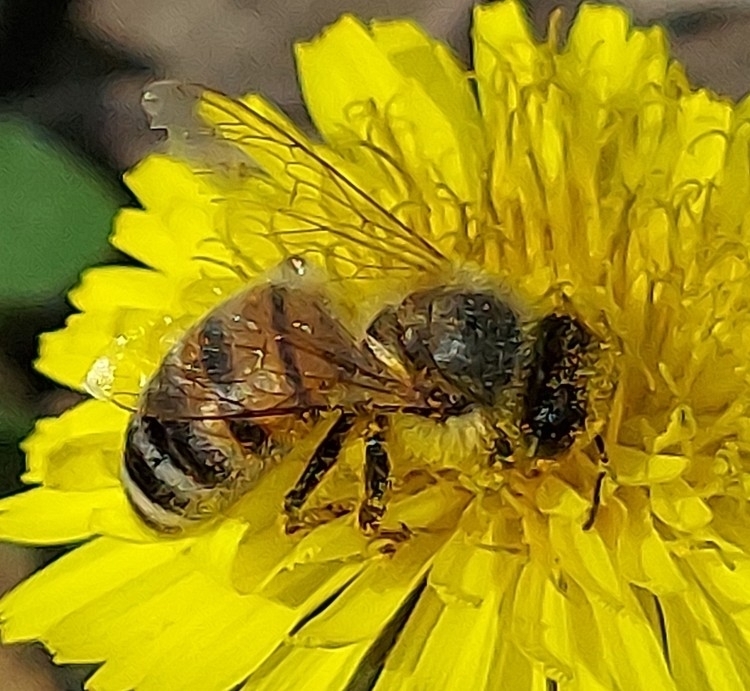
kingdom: Animalia
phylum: Arthropoda
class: Insecta
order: Hymenoptera
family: Apidae
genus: Apis
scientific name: Apis mellifera
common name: Honey bee
